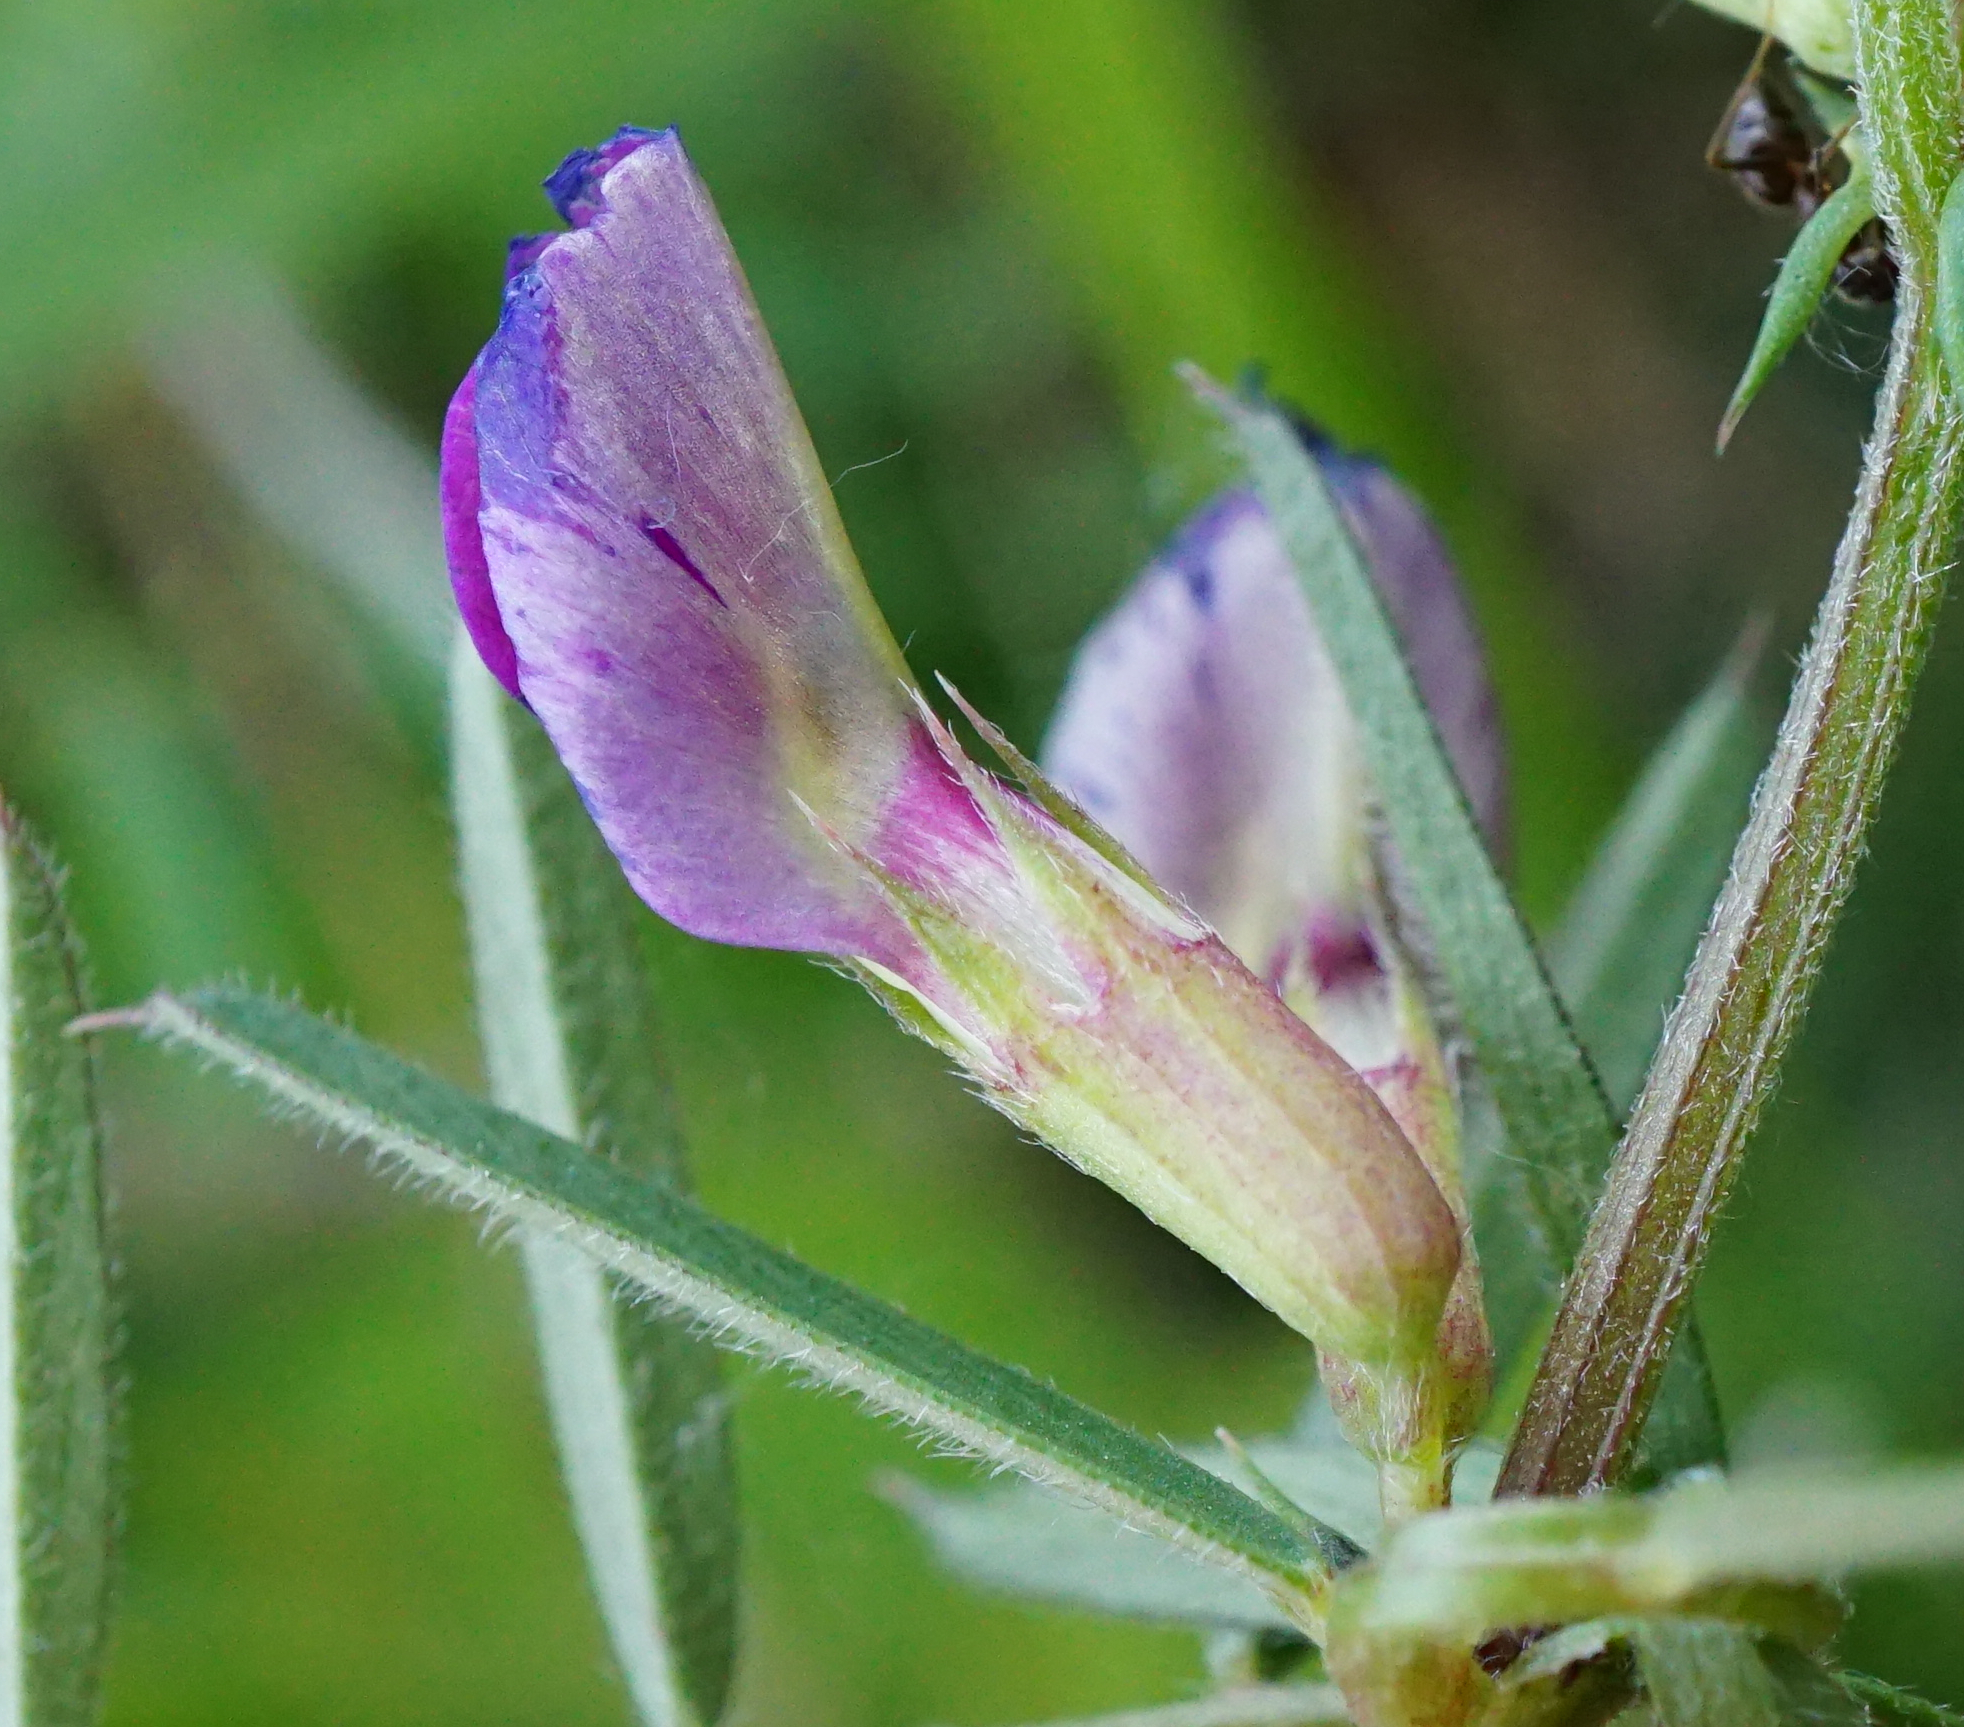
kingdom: Plantae
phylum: Tracheophyta
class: Magnoliopsida
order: Fabales
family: Fabaceae
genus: Vicia
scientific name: Vicia sativa
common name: Garden vetch
